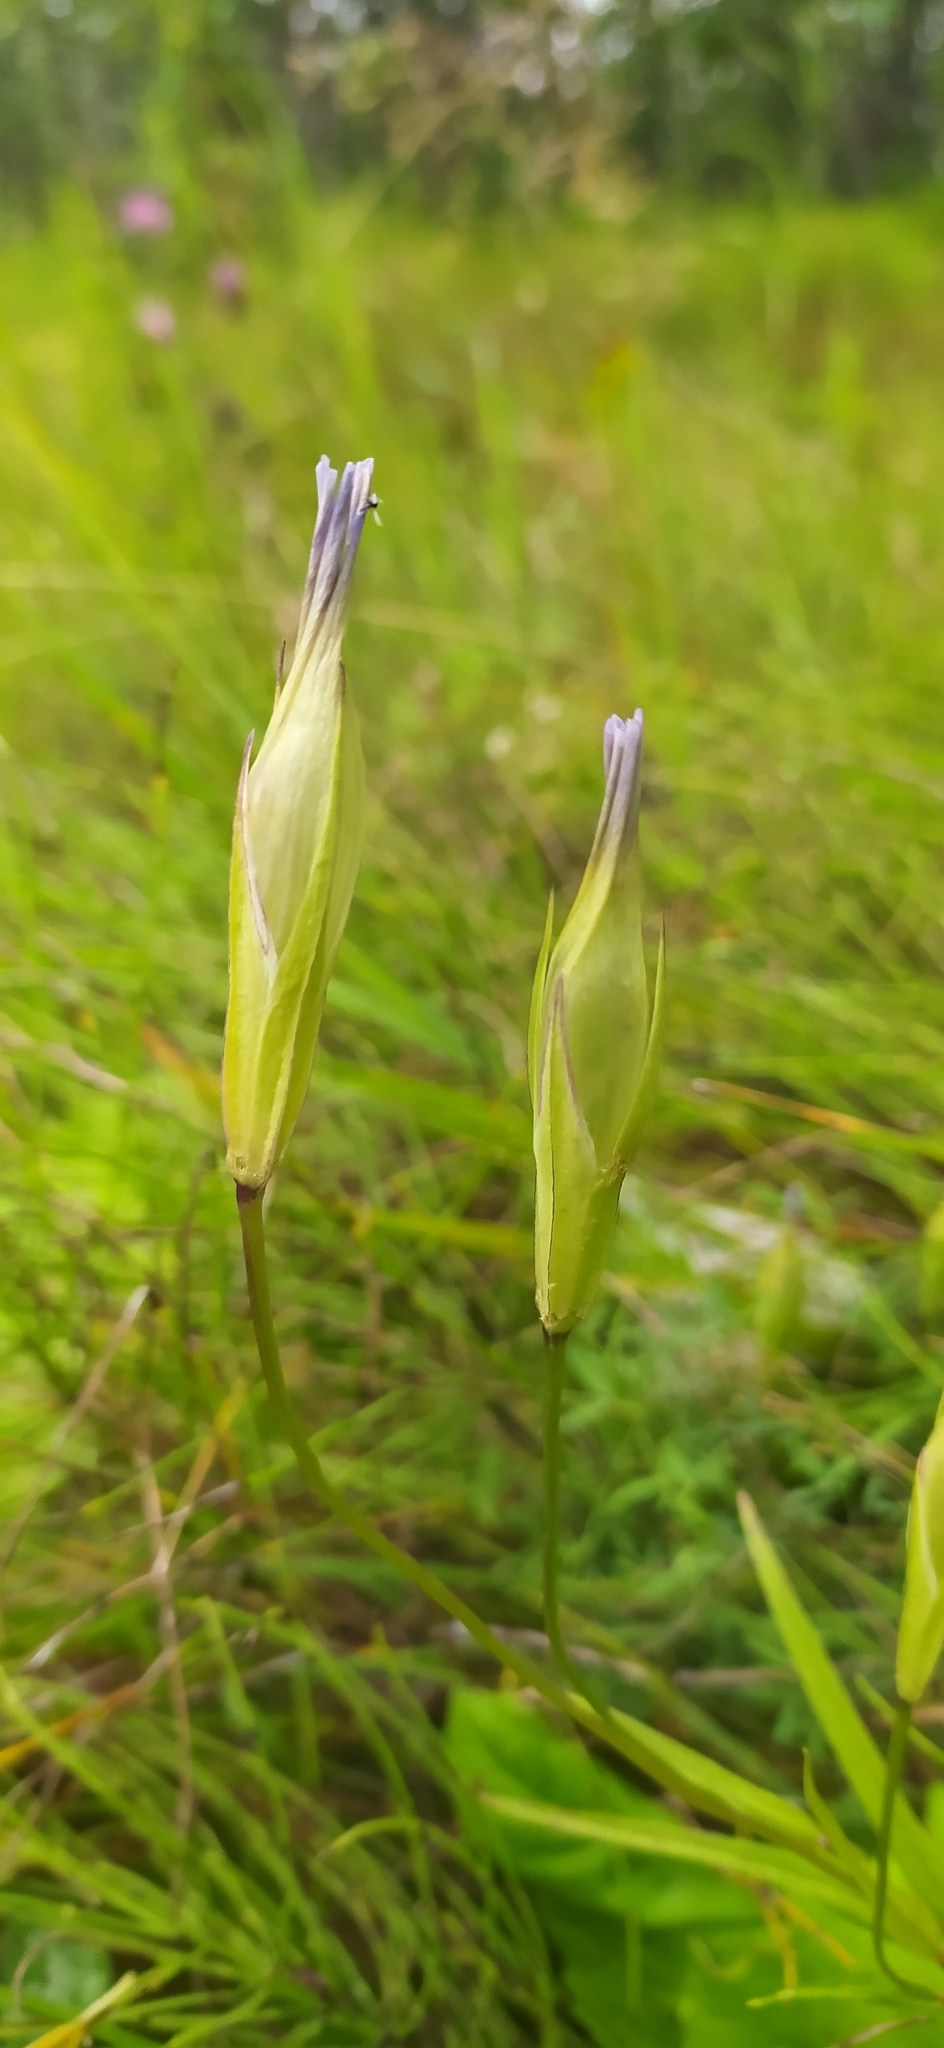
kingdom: Plantae
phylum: Tracheophyta
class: Magnoliopsida
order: Gentianales
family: Gentianaceae
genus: Gentianopsis
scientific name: Gentianopsis barbata
